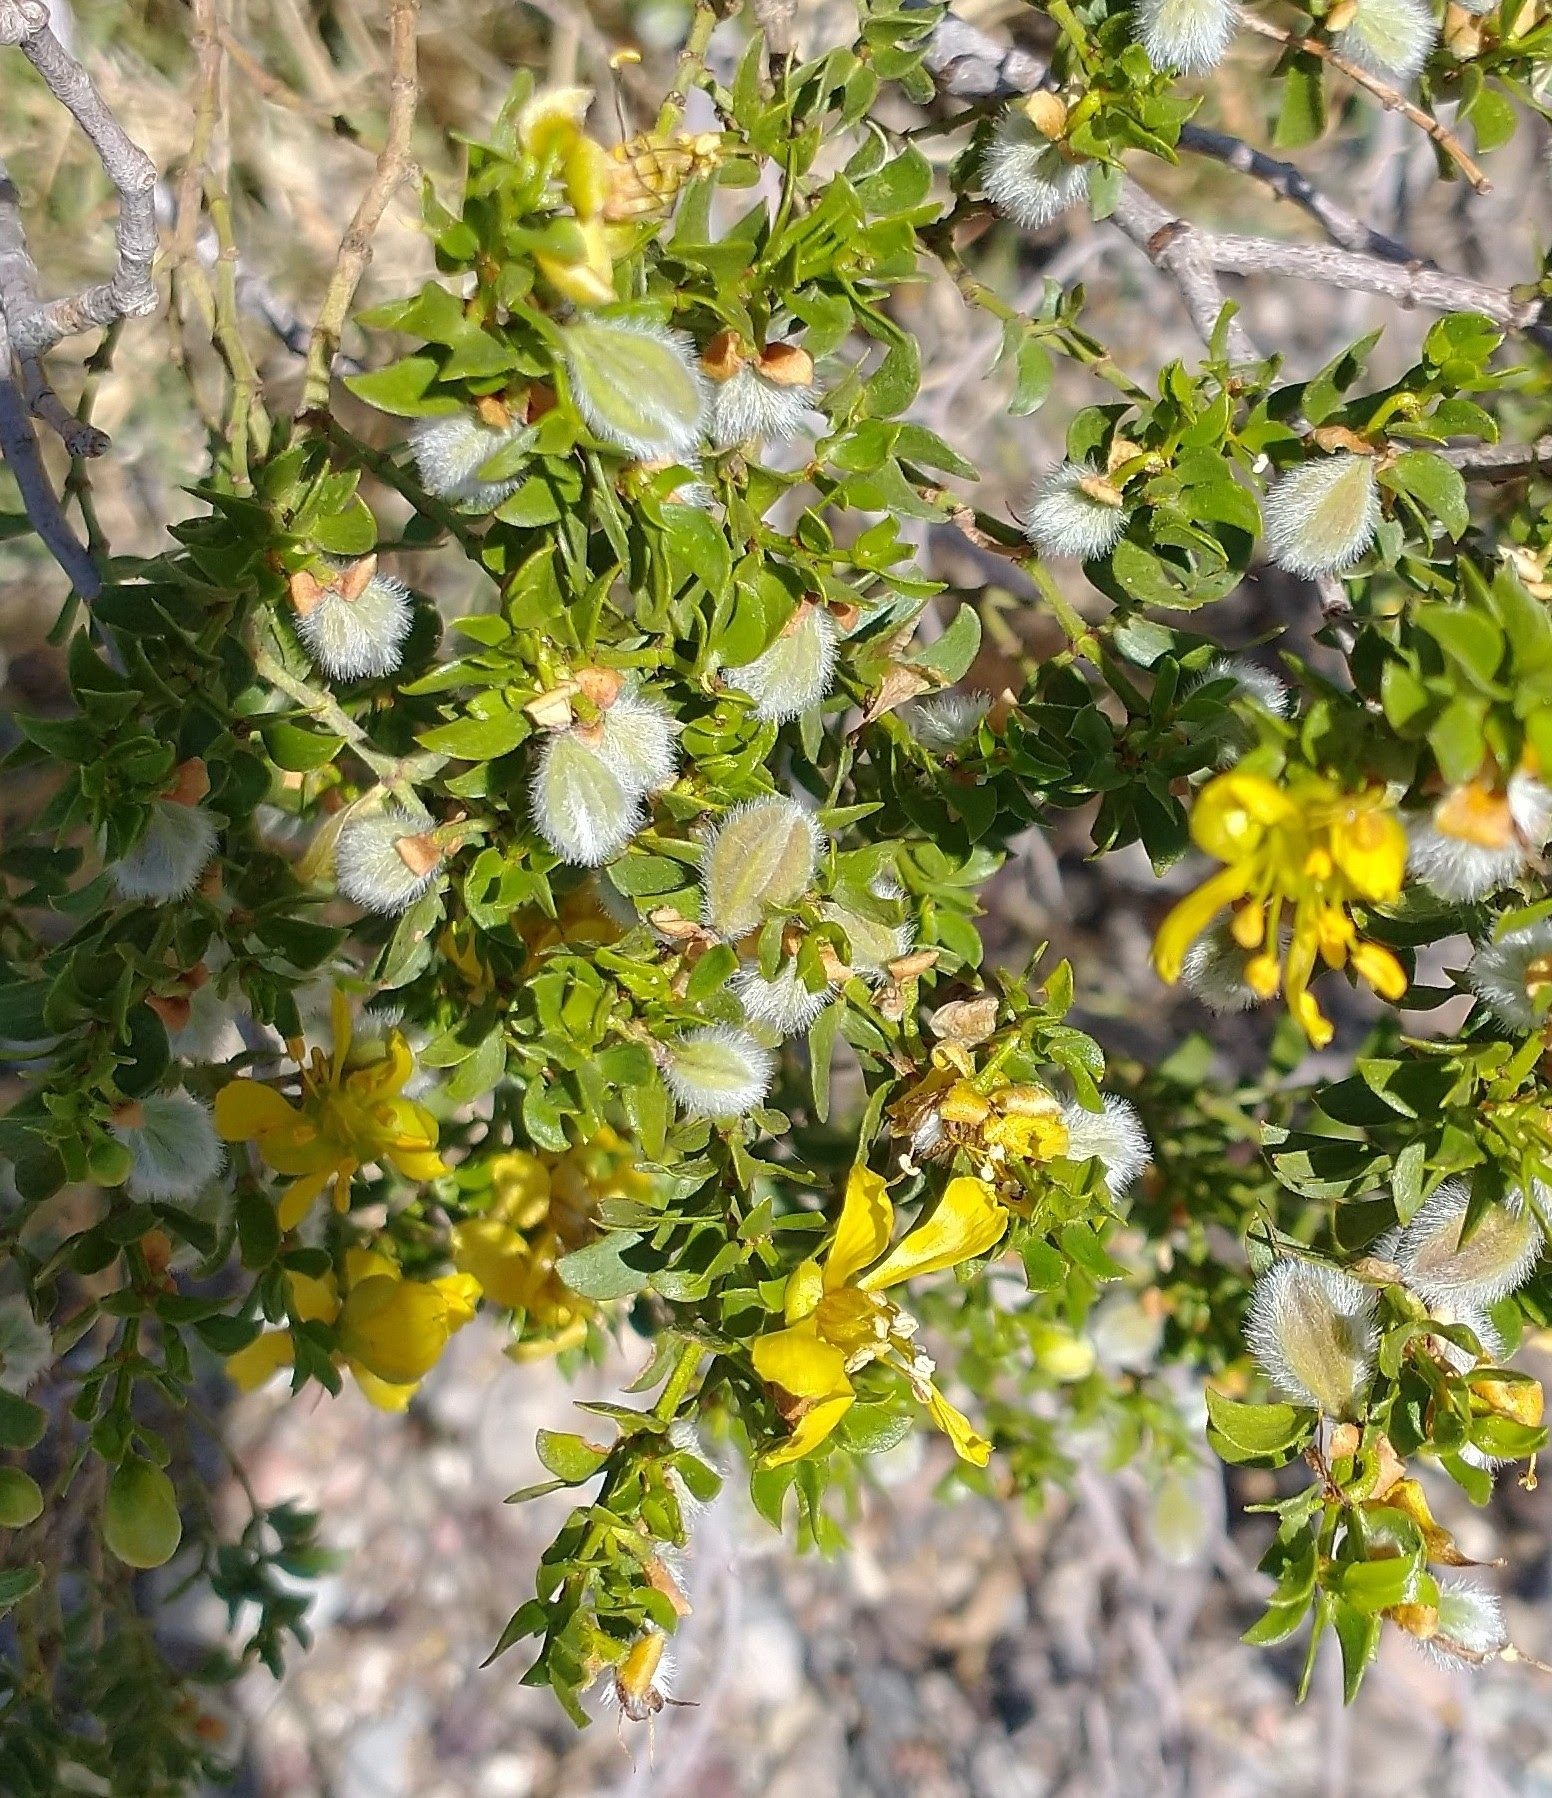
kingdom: Plantae
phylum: Tracheophyta
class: Magnoliopsida
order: Zygophyllales
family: Zygophyllaceae
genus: Larrea
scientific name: Larrea tridentata
